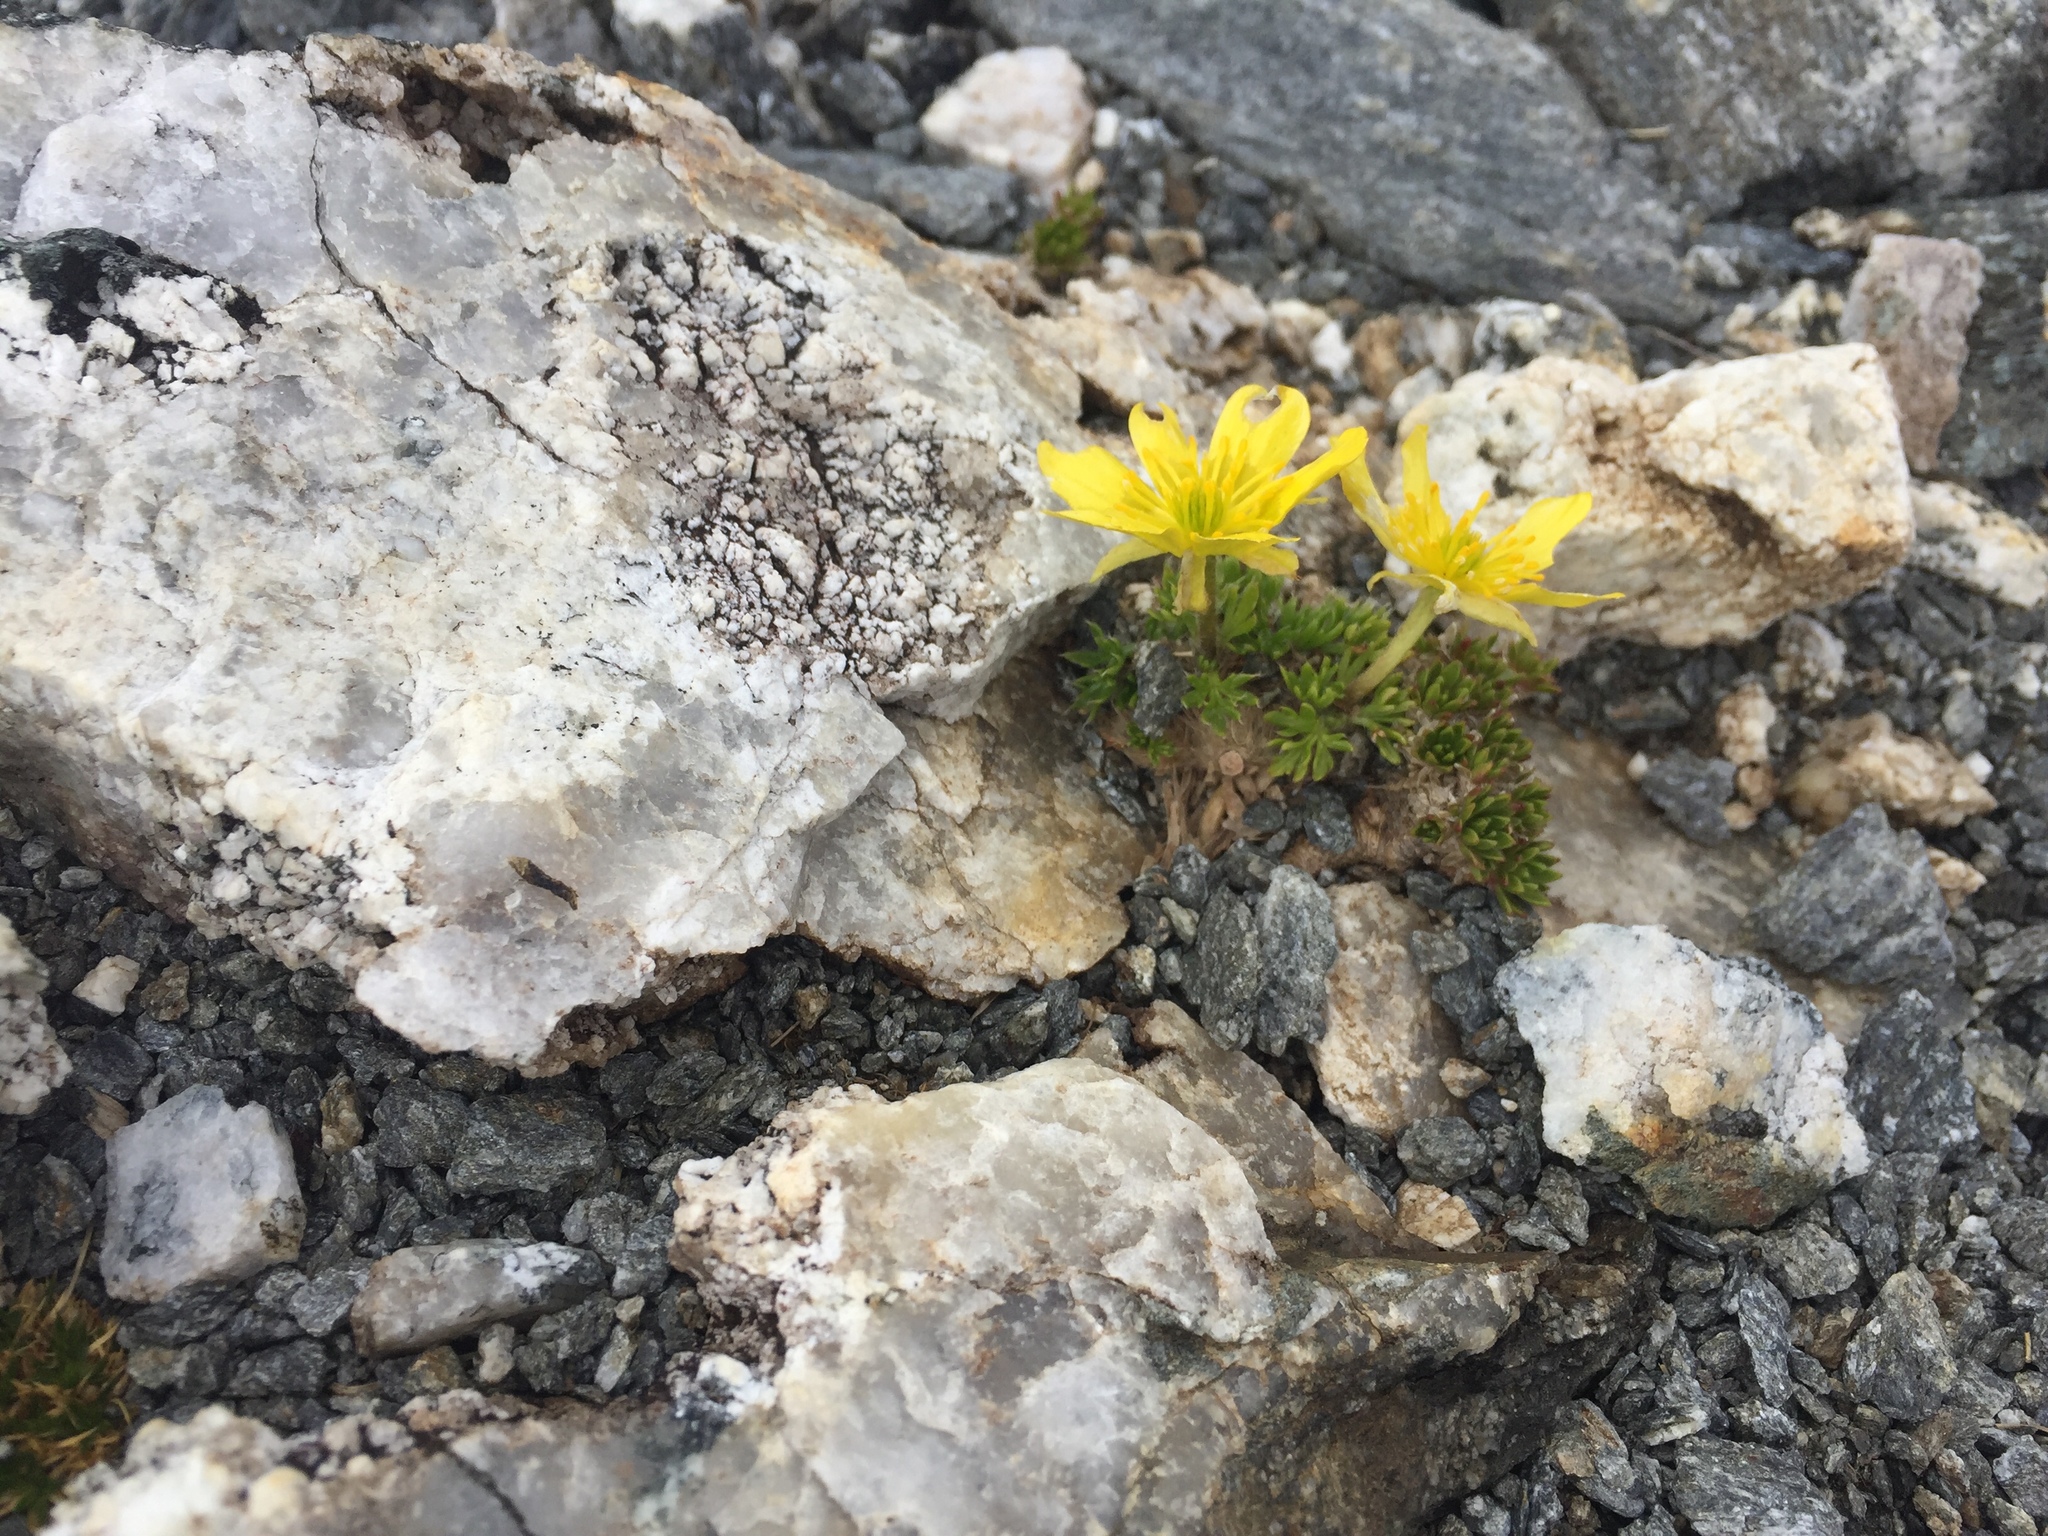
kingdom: Plantae
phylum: Tracheophyta
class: Magnoliopsida
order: Ranunculales
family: Ranunculaceae
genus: Ranunculus
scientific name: Ranunculus sericophyllus
